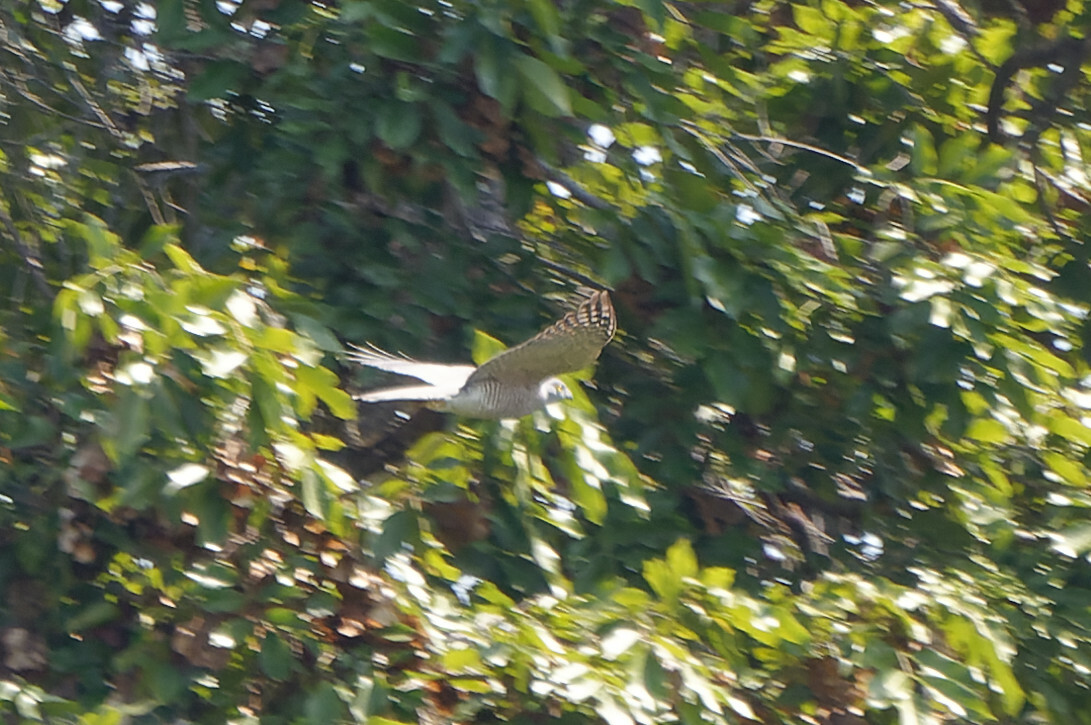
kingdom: Animalia
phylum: Chordata
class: Aves
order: Accipitriformes
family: Accipitridae
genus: Accipiter
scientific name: Accipiter badius
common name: Shikra
